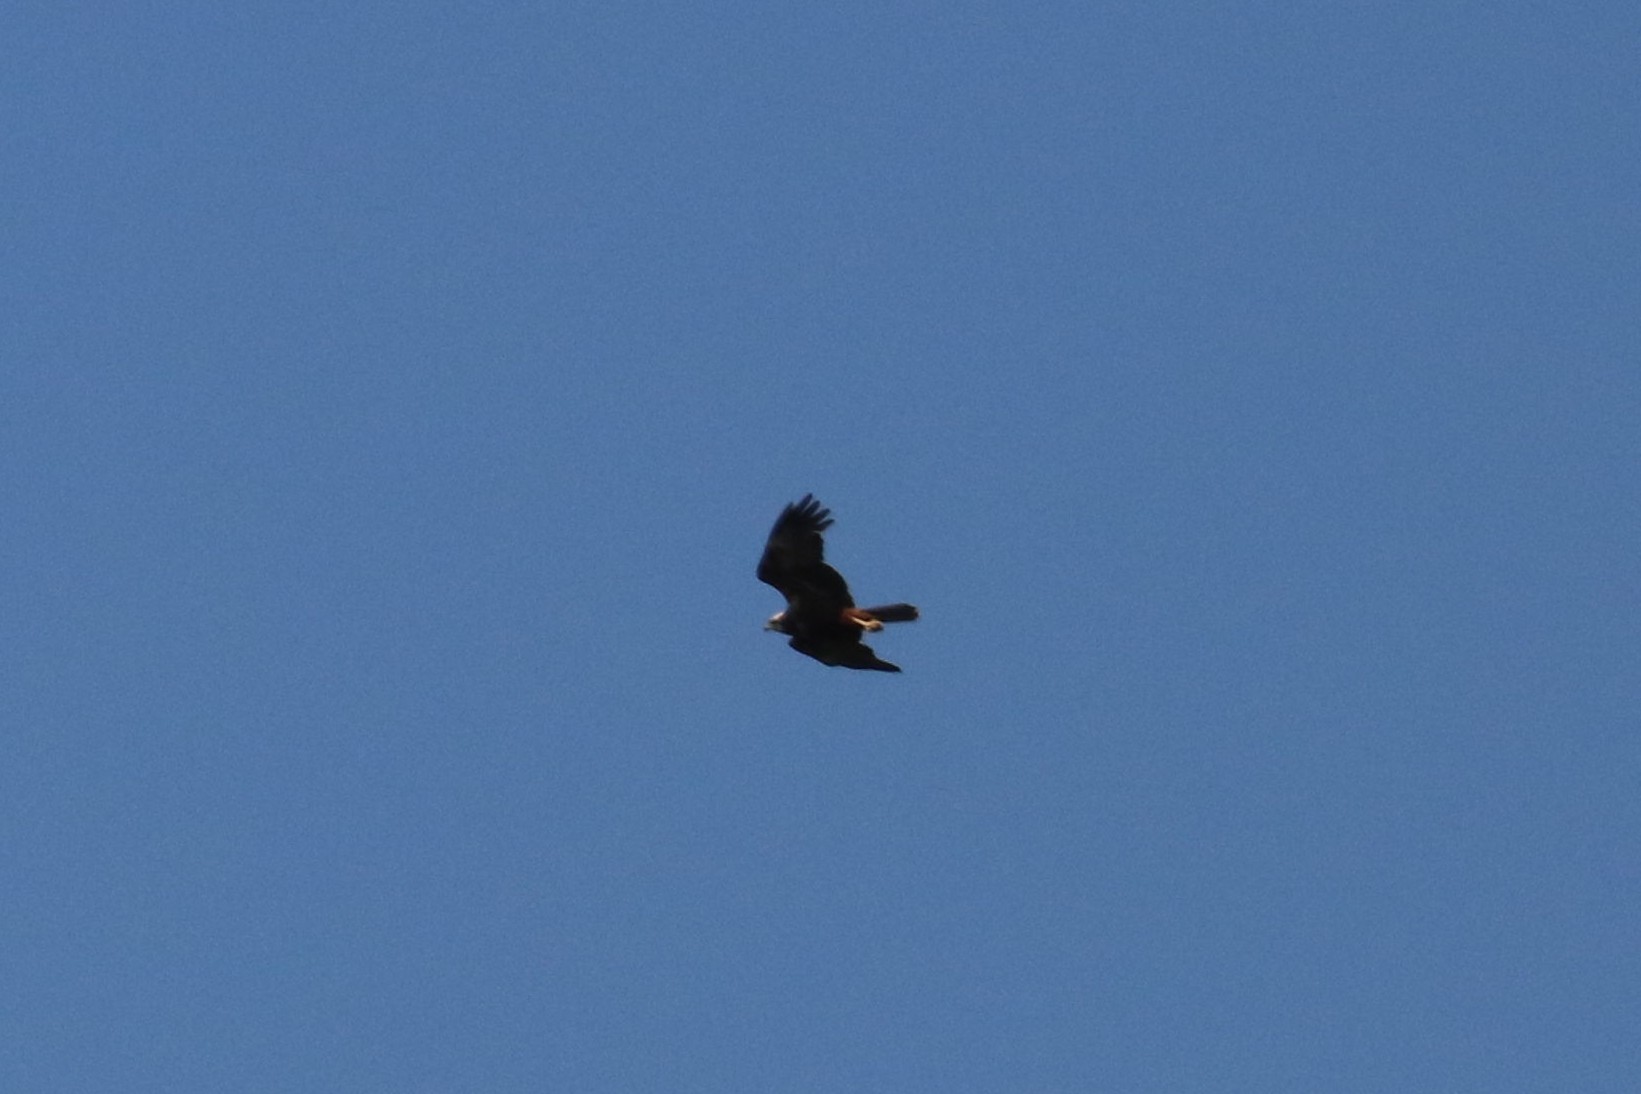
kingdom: Animalia
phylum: Chordata
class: Aves
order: Accipitriformes
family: Accipitridae
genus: Circus
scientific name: Circus aeruginosus
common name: Western marsh harrier
